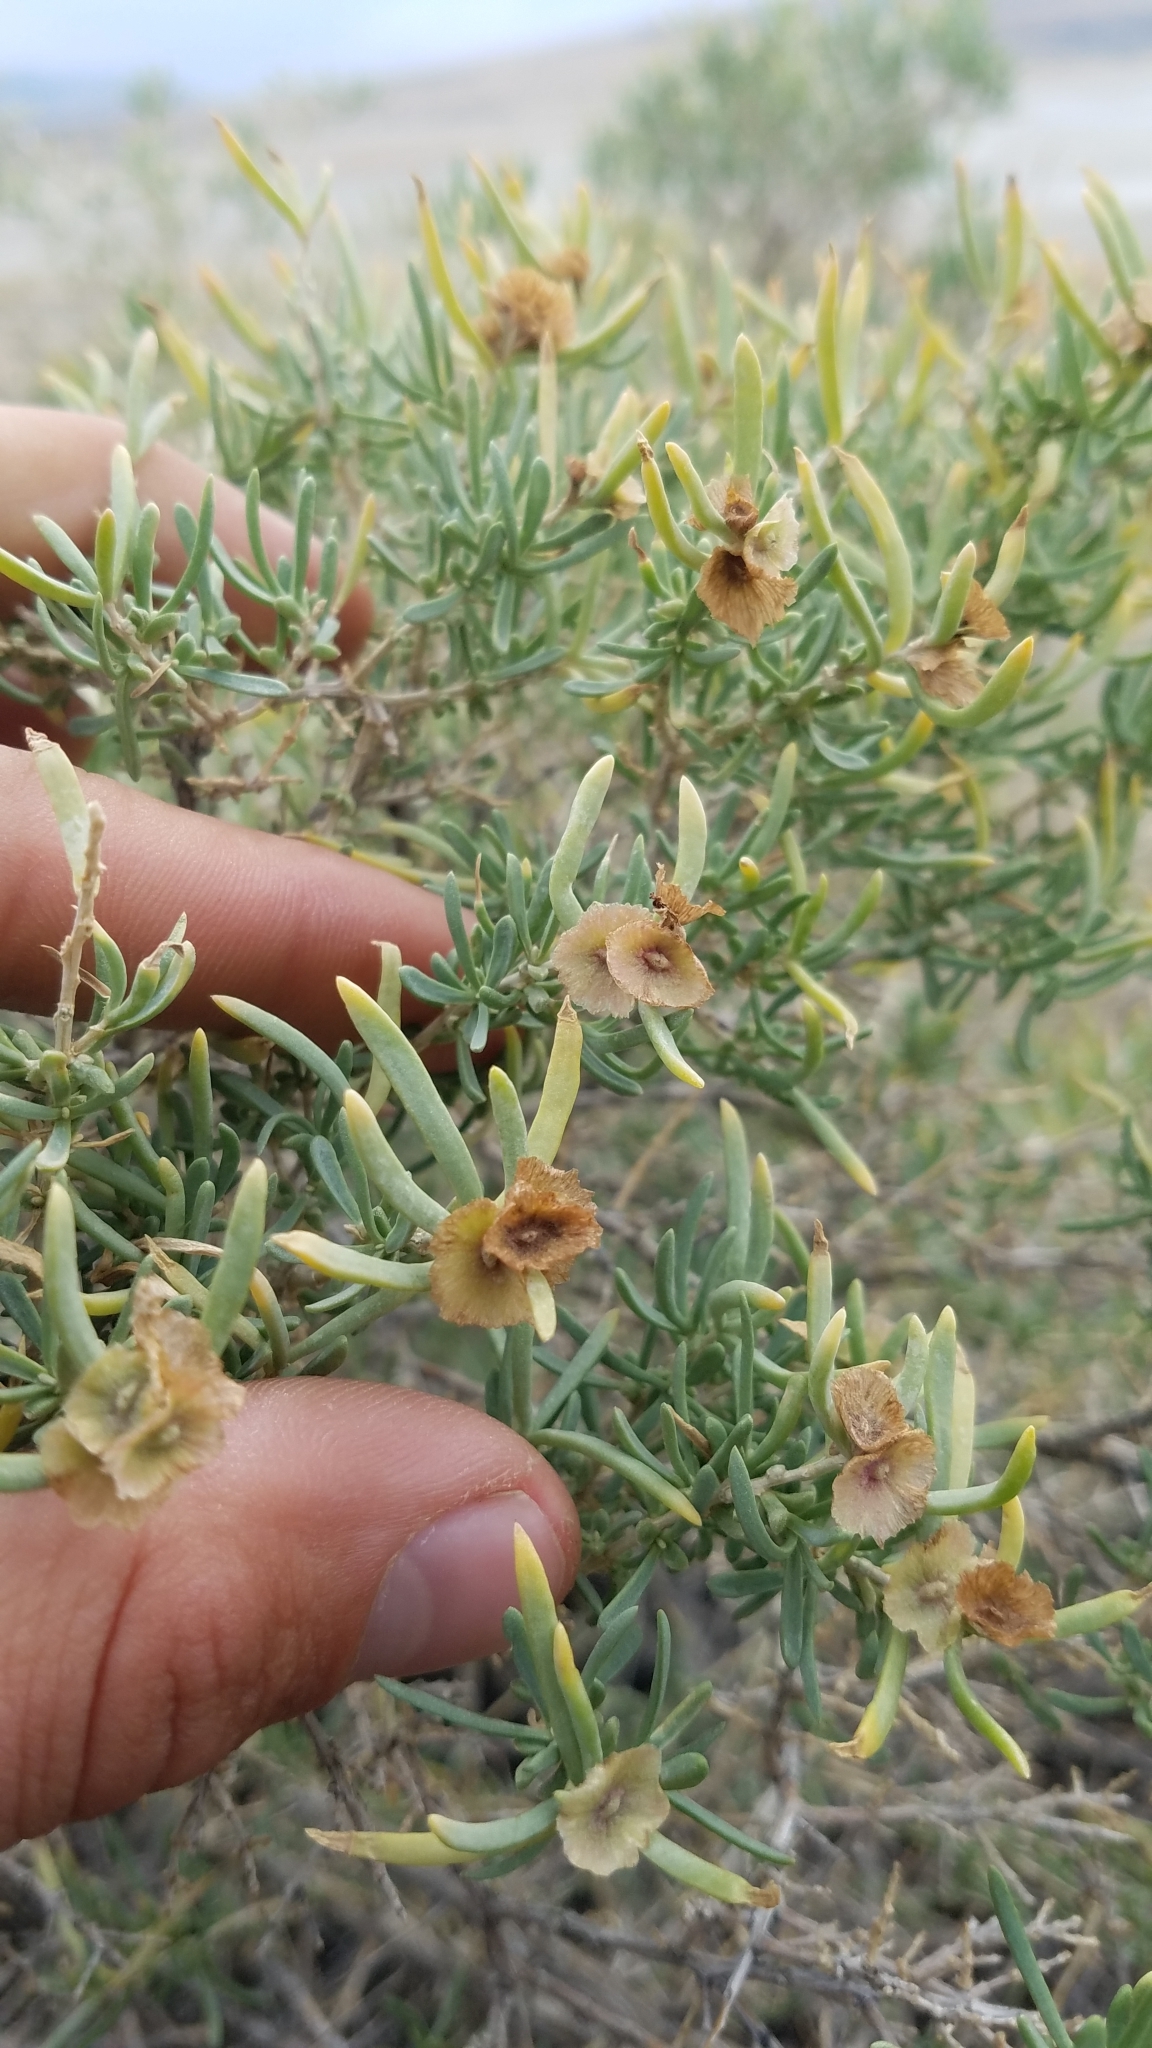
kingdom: Plantae
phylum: Tracheophyta
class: Magnoliopsida
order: Caryophyllales
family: Sarcobataceae
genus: Sarcobatus
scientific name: Sarcobatus vermiculatus
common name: Greasewood
